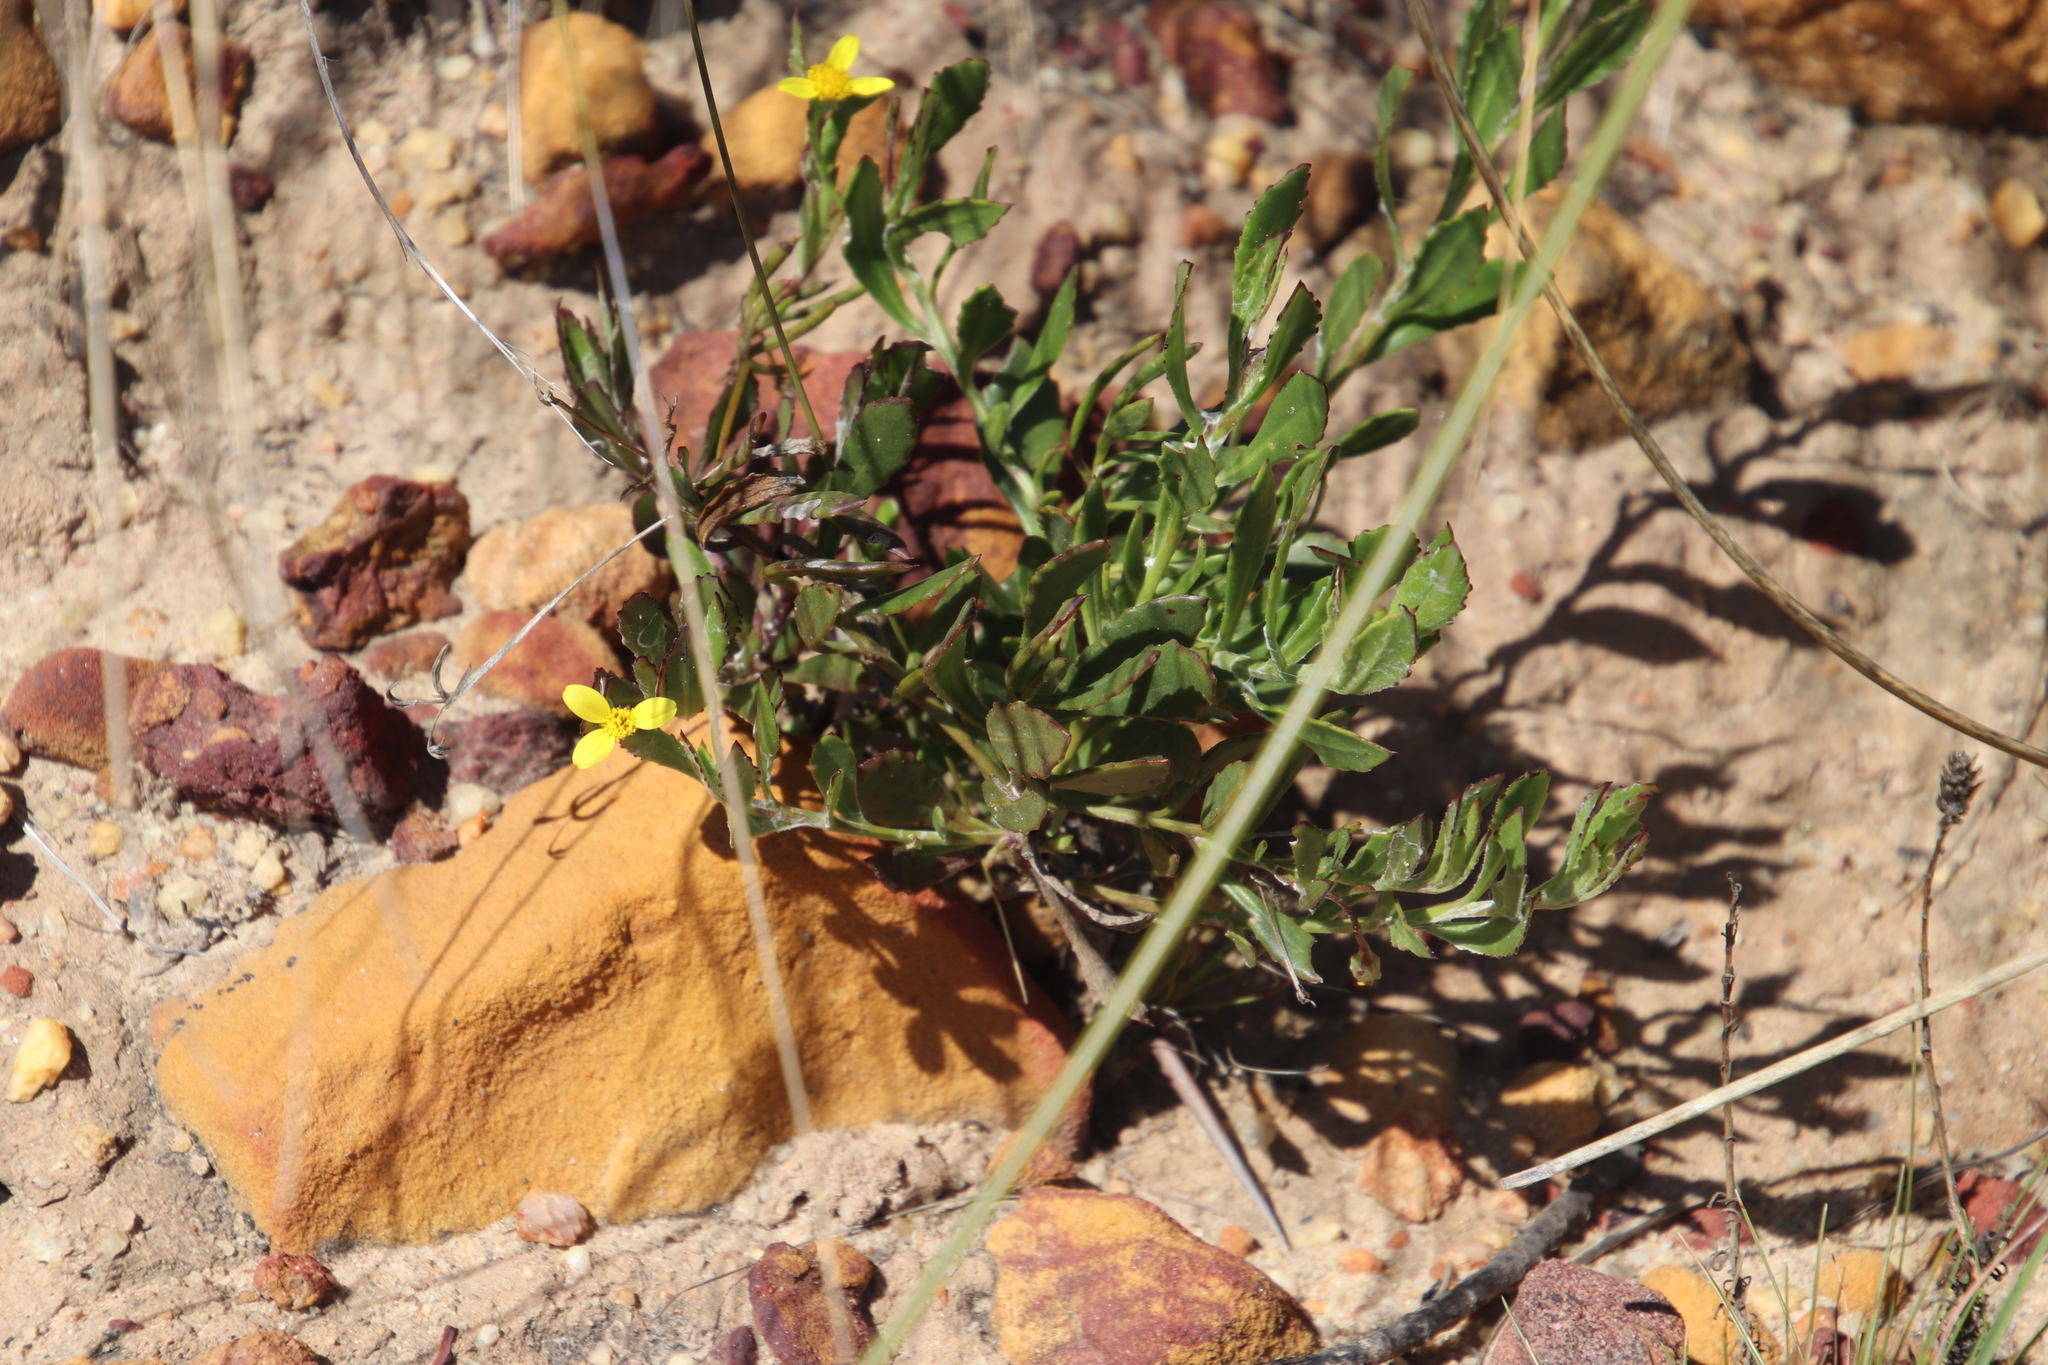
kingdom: Plantae
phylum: Tracheophyta
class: Magnoliopsida
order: Asterales
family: Asteraceae
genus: Osteospermum
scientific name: Osteospermum ciliatum
